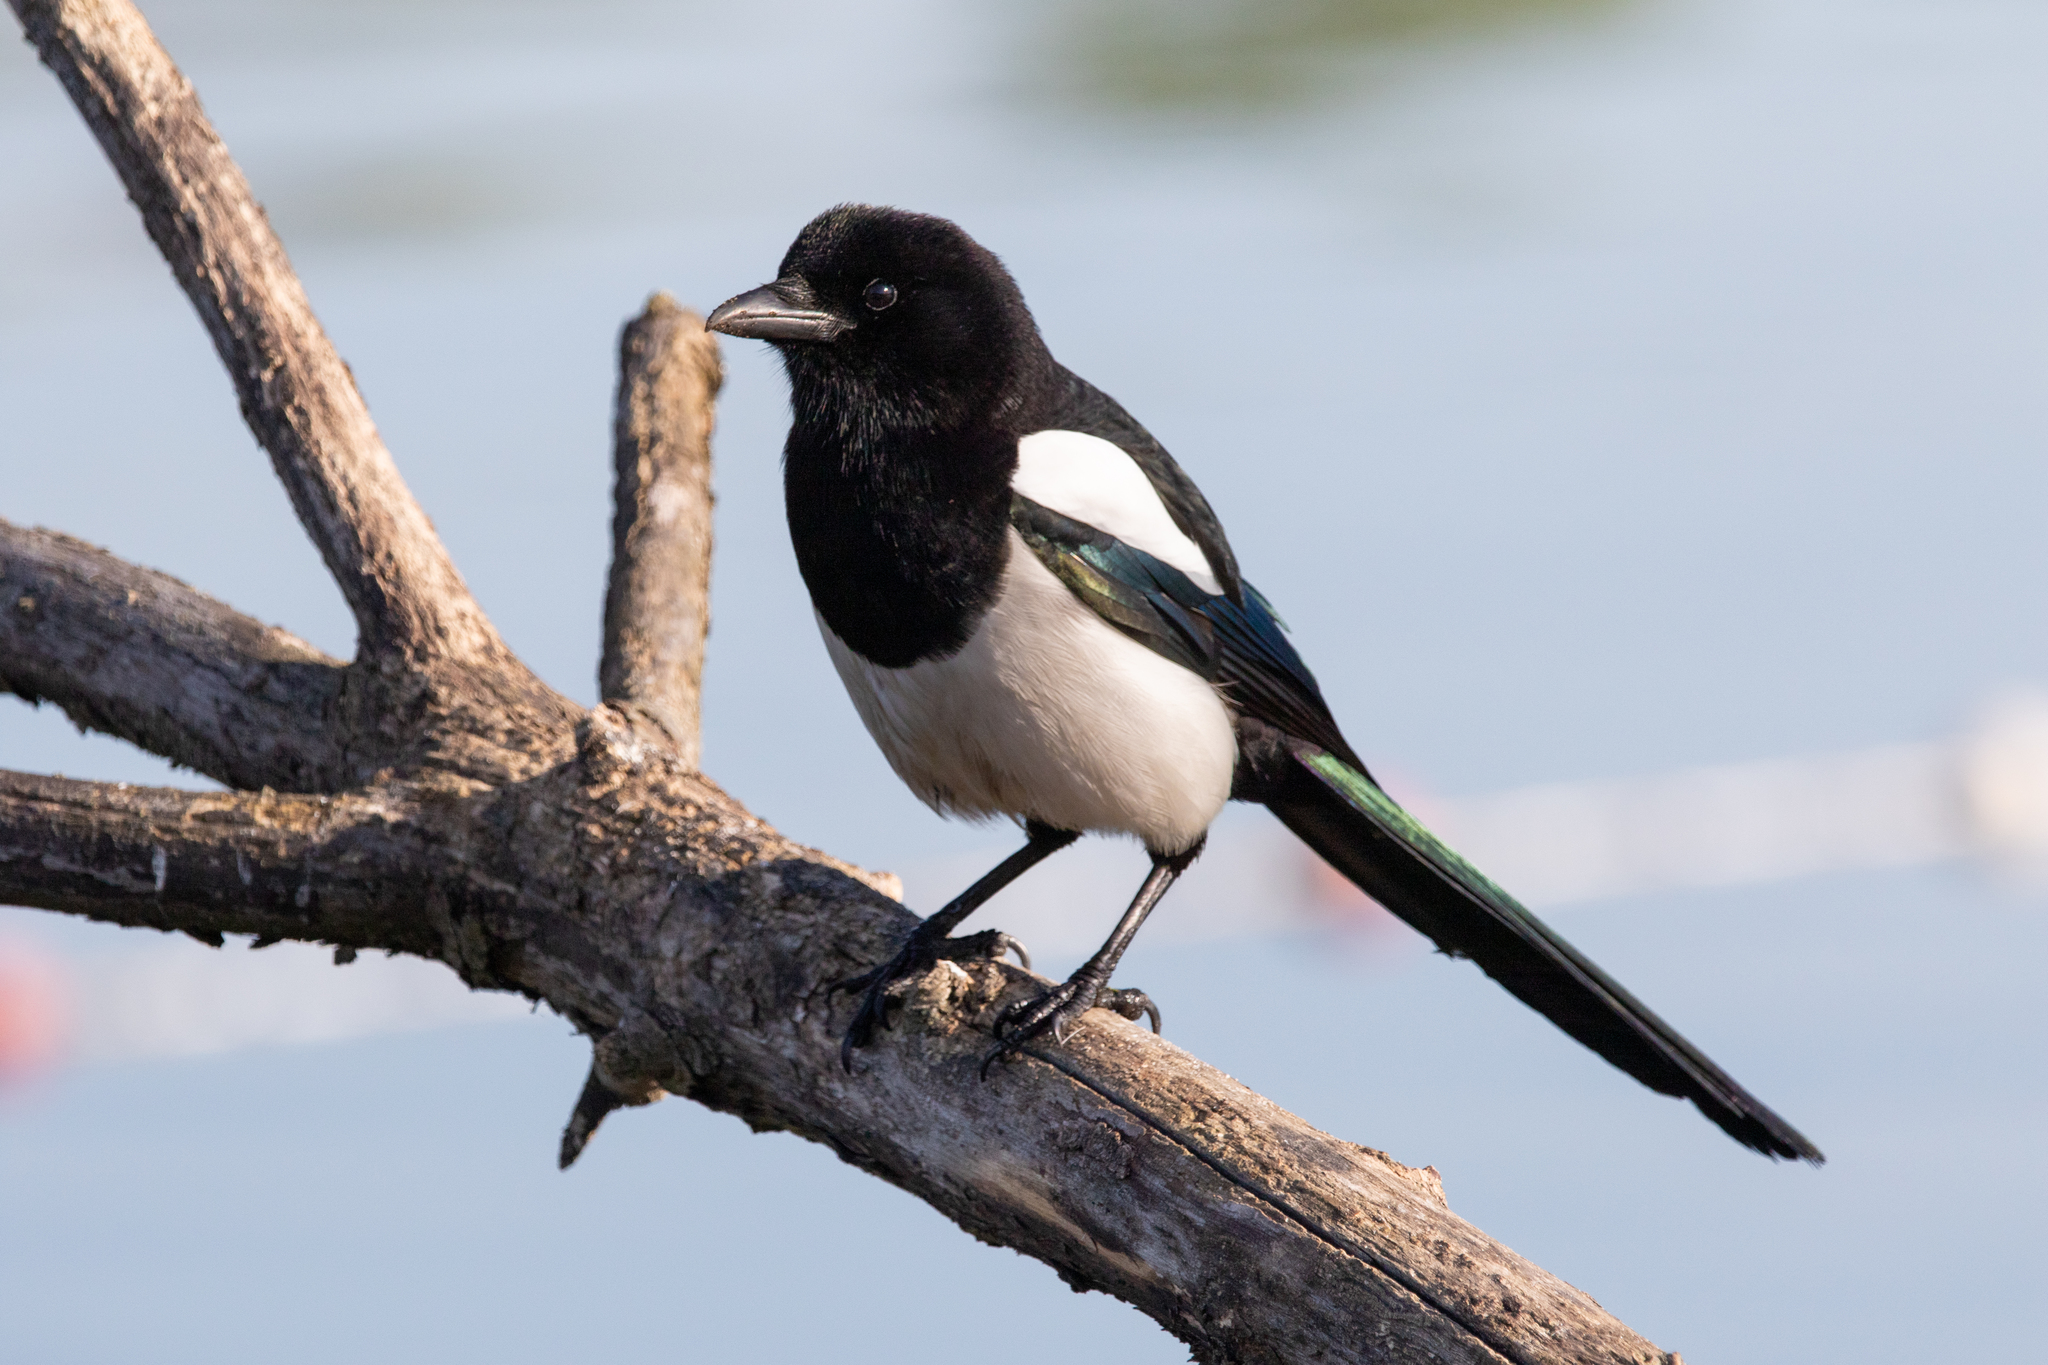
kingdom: Animalia
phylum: Chordata
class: Aves
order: Passeriformes
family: Corvidae
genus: Pica
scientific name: Pica pica
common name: Eurasian magpie
